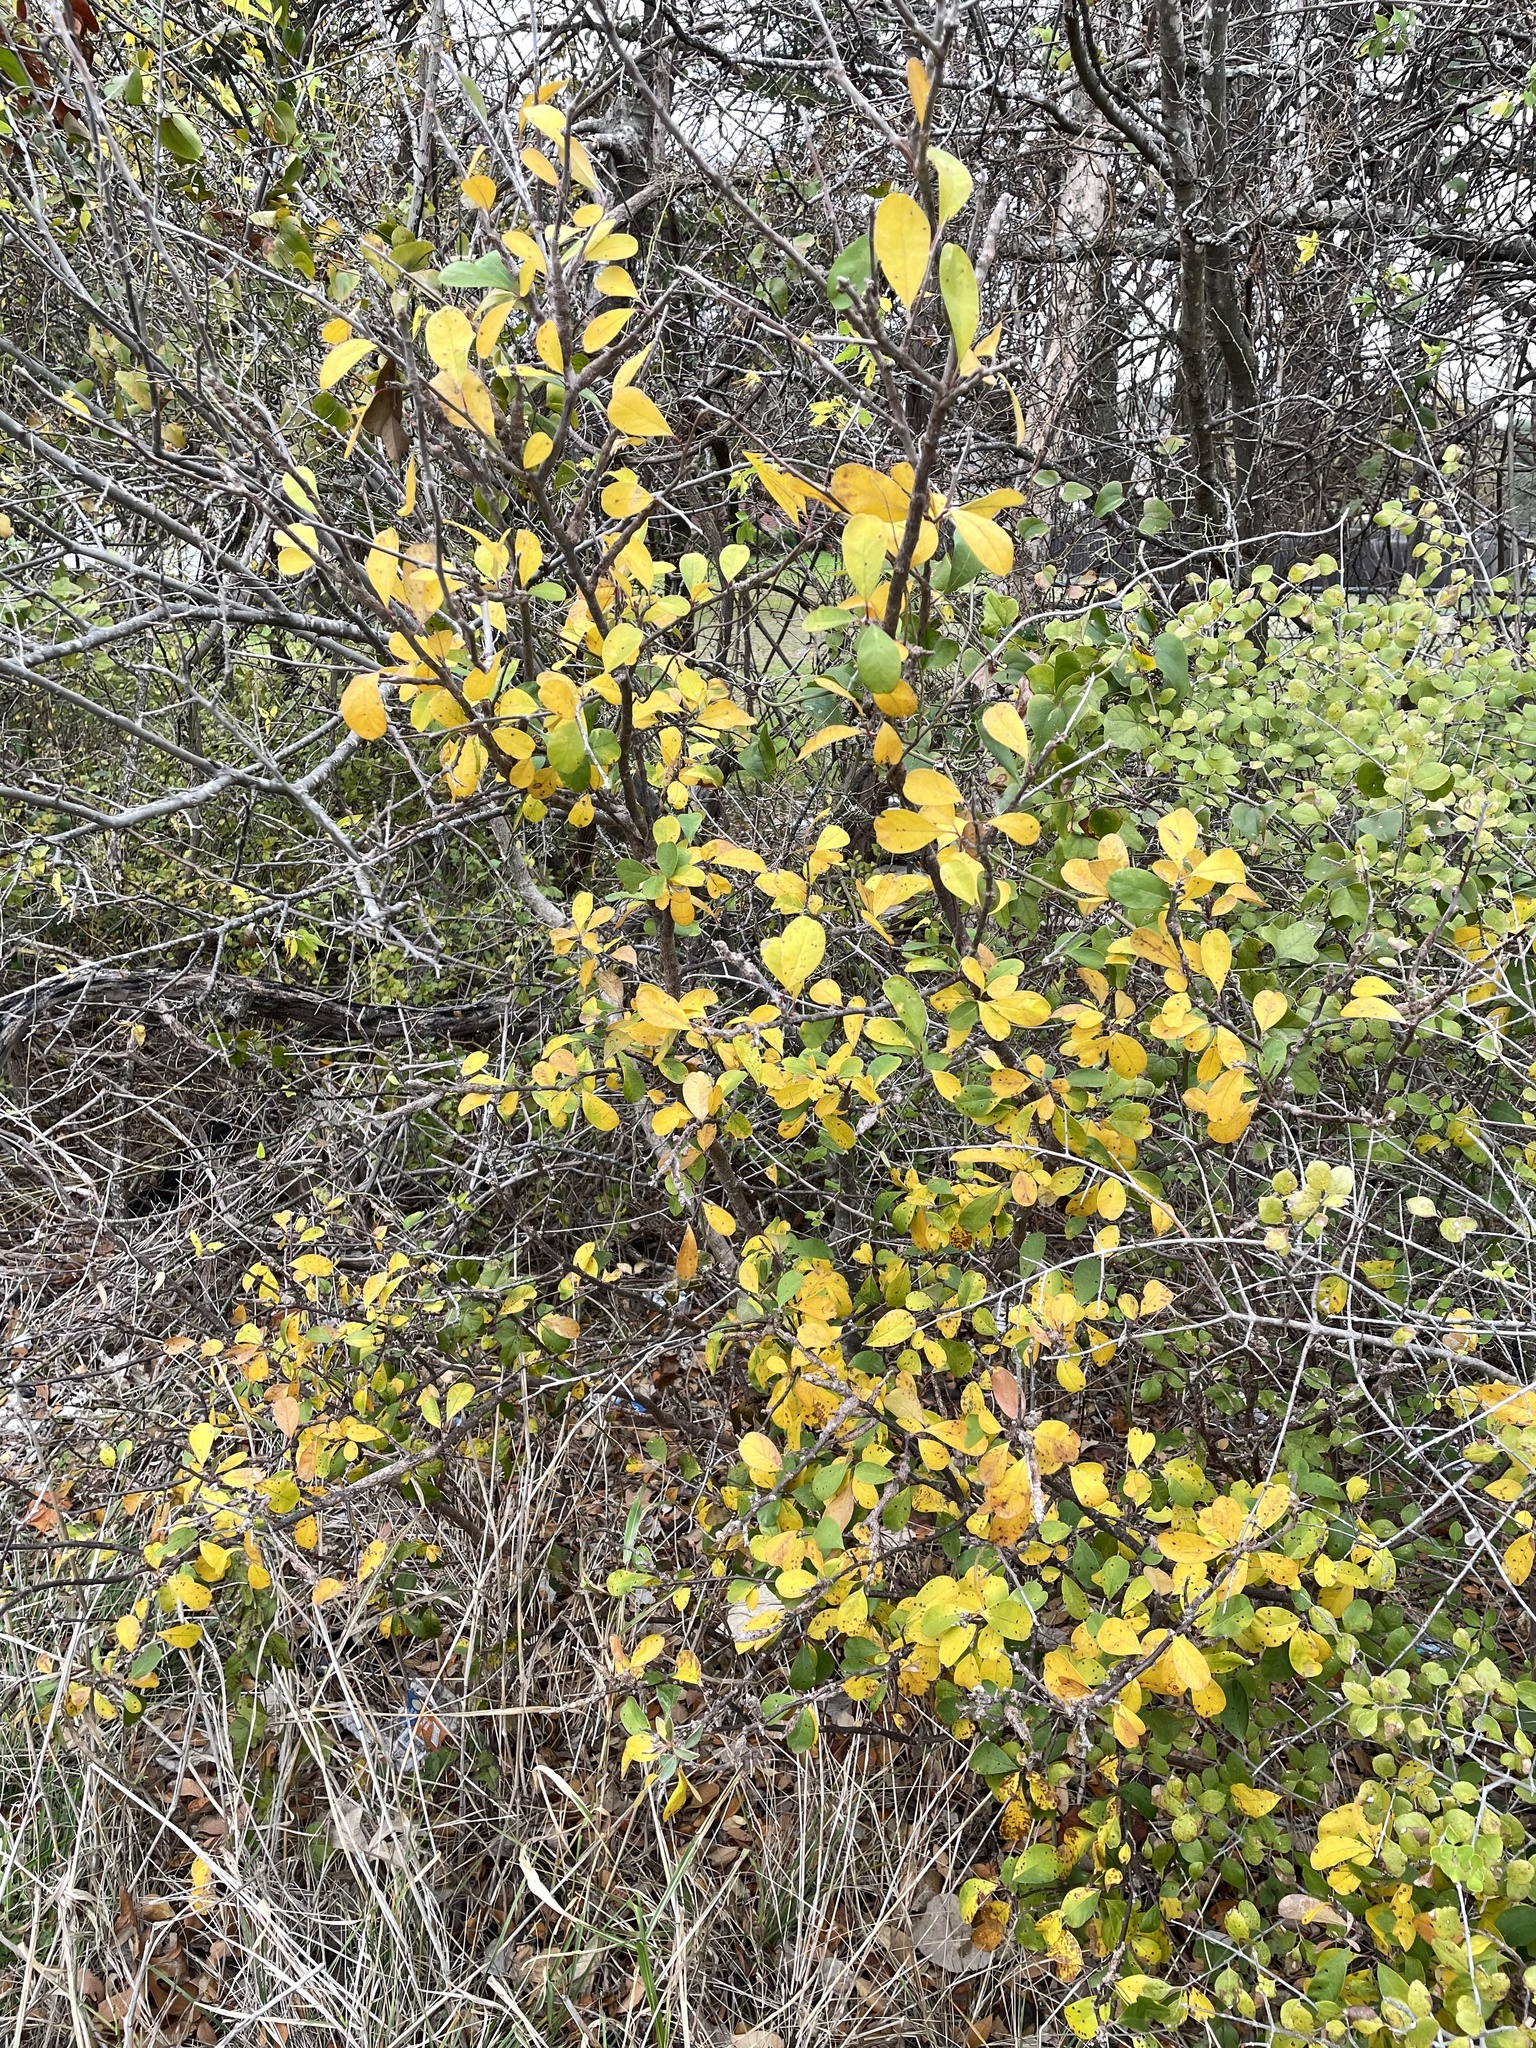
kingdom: Plantae
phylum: Tracheophyta
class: Magnoliopsida
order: Ericales
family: Sapotaceae
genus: Sideroxylon
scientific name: Sideroxylon lanuginosum
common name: Chittamwood
